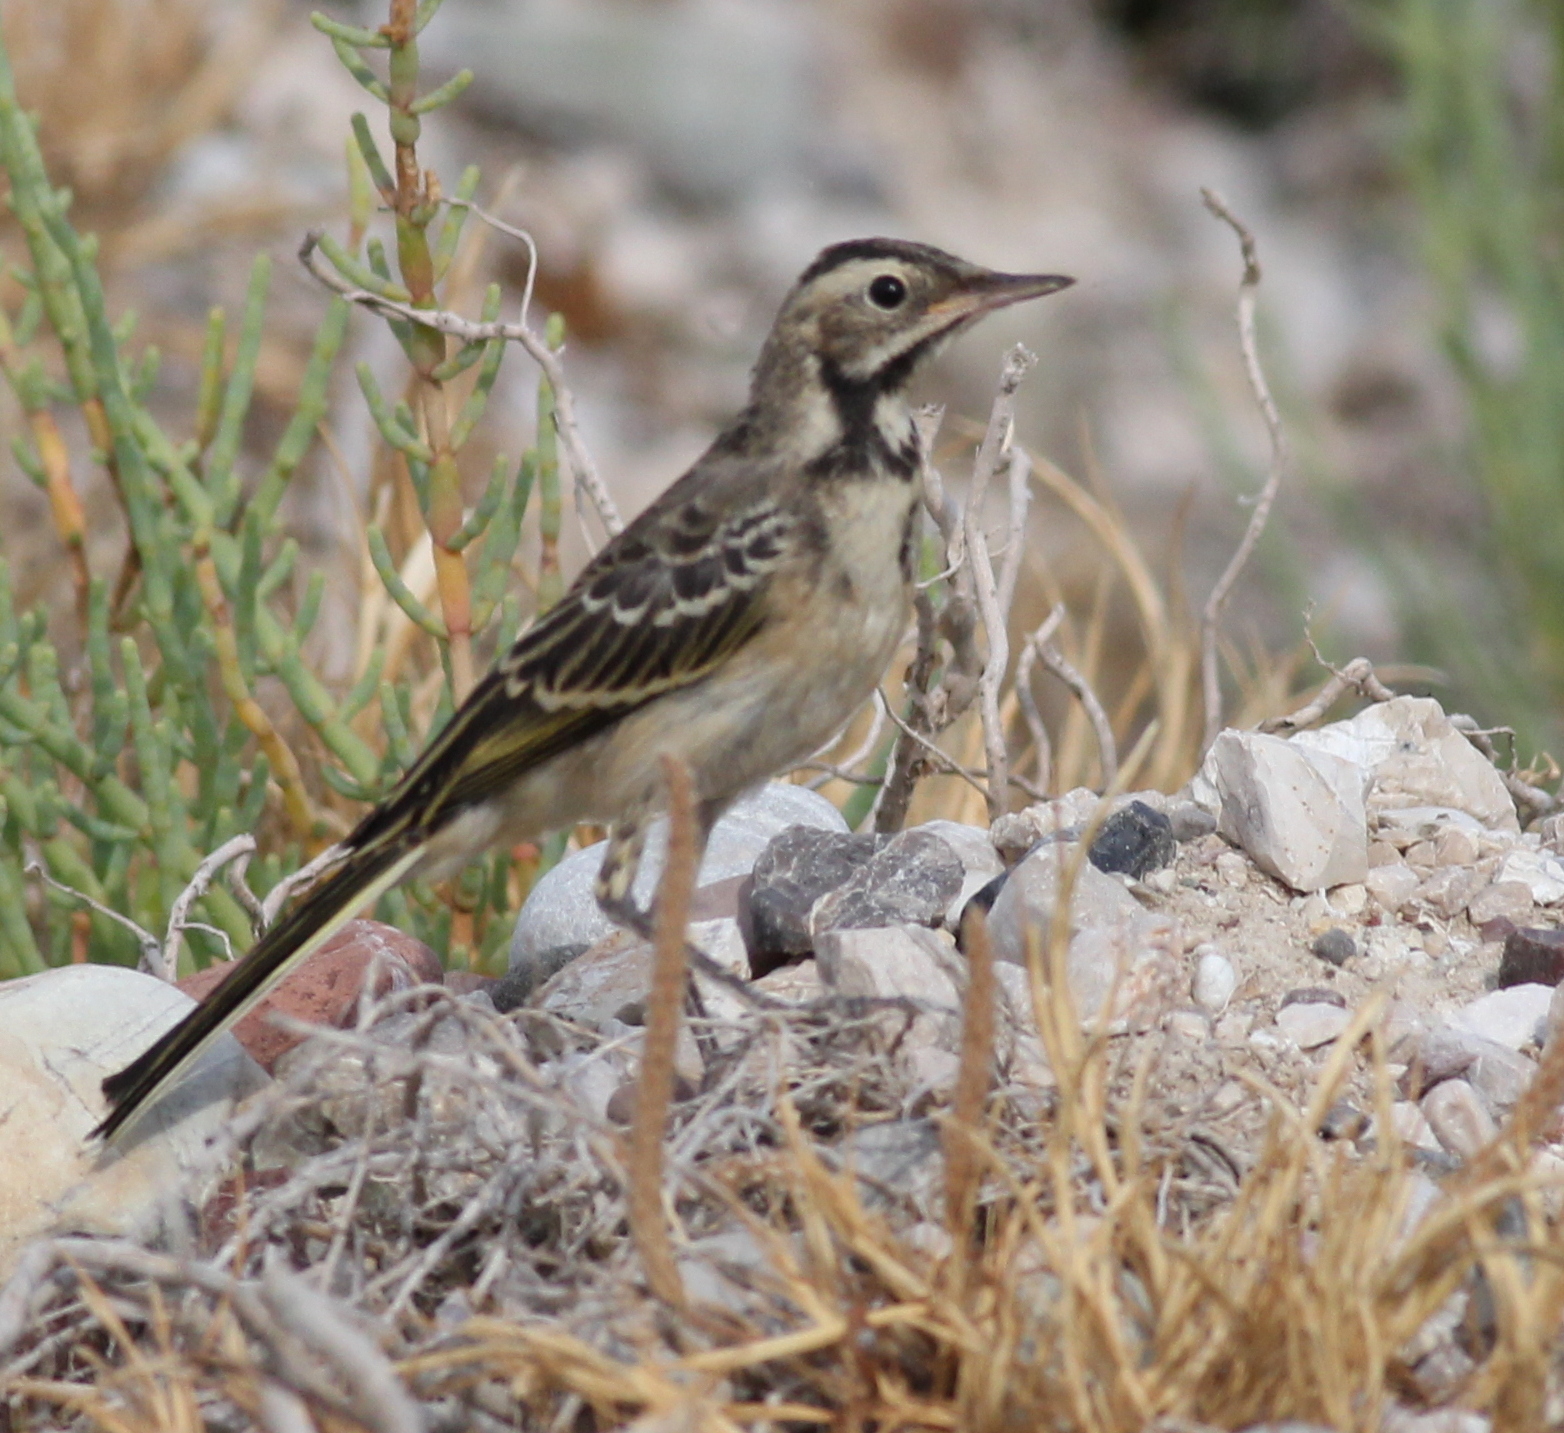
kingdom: Animalia
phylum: Chordata
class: Aves
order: Passeriformes
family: Motacillidae
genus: Motacilla
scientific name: Motacilla alba
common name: White wagtail
